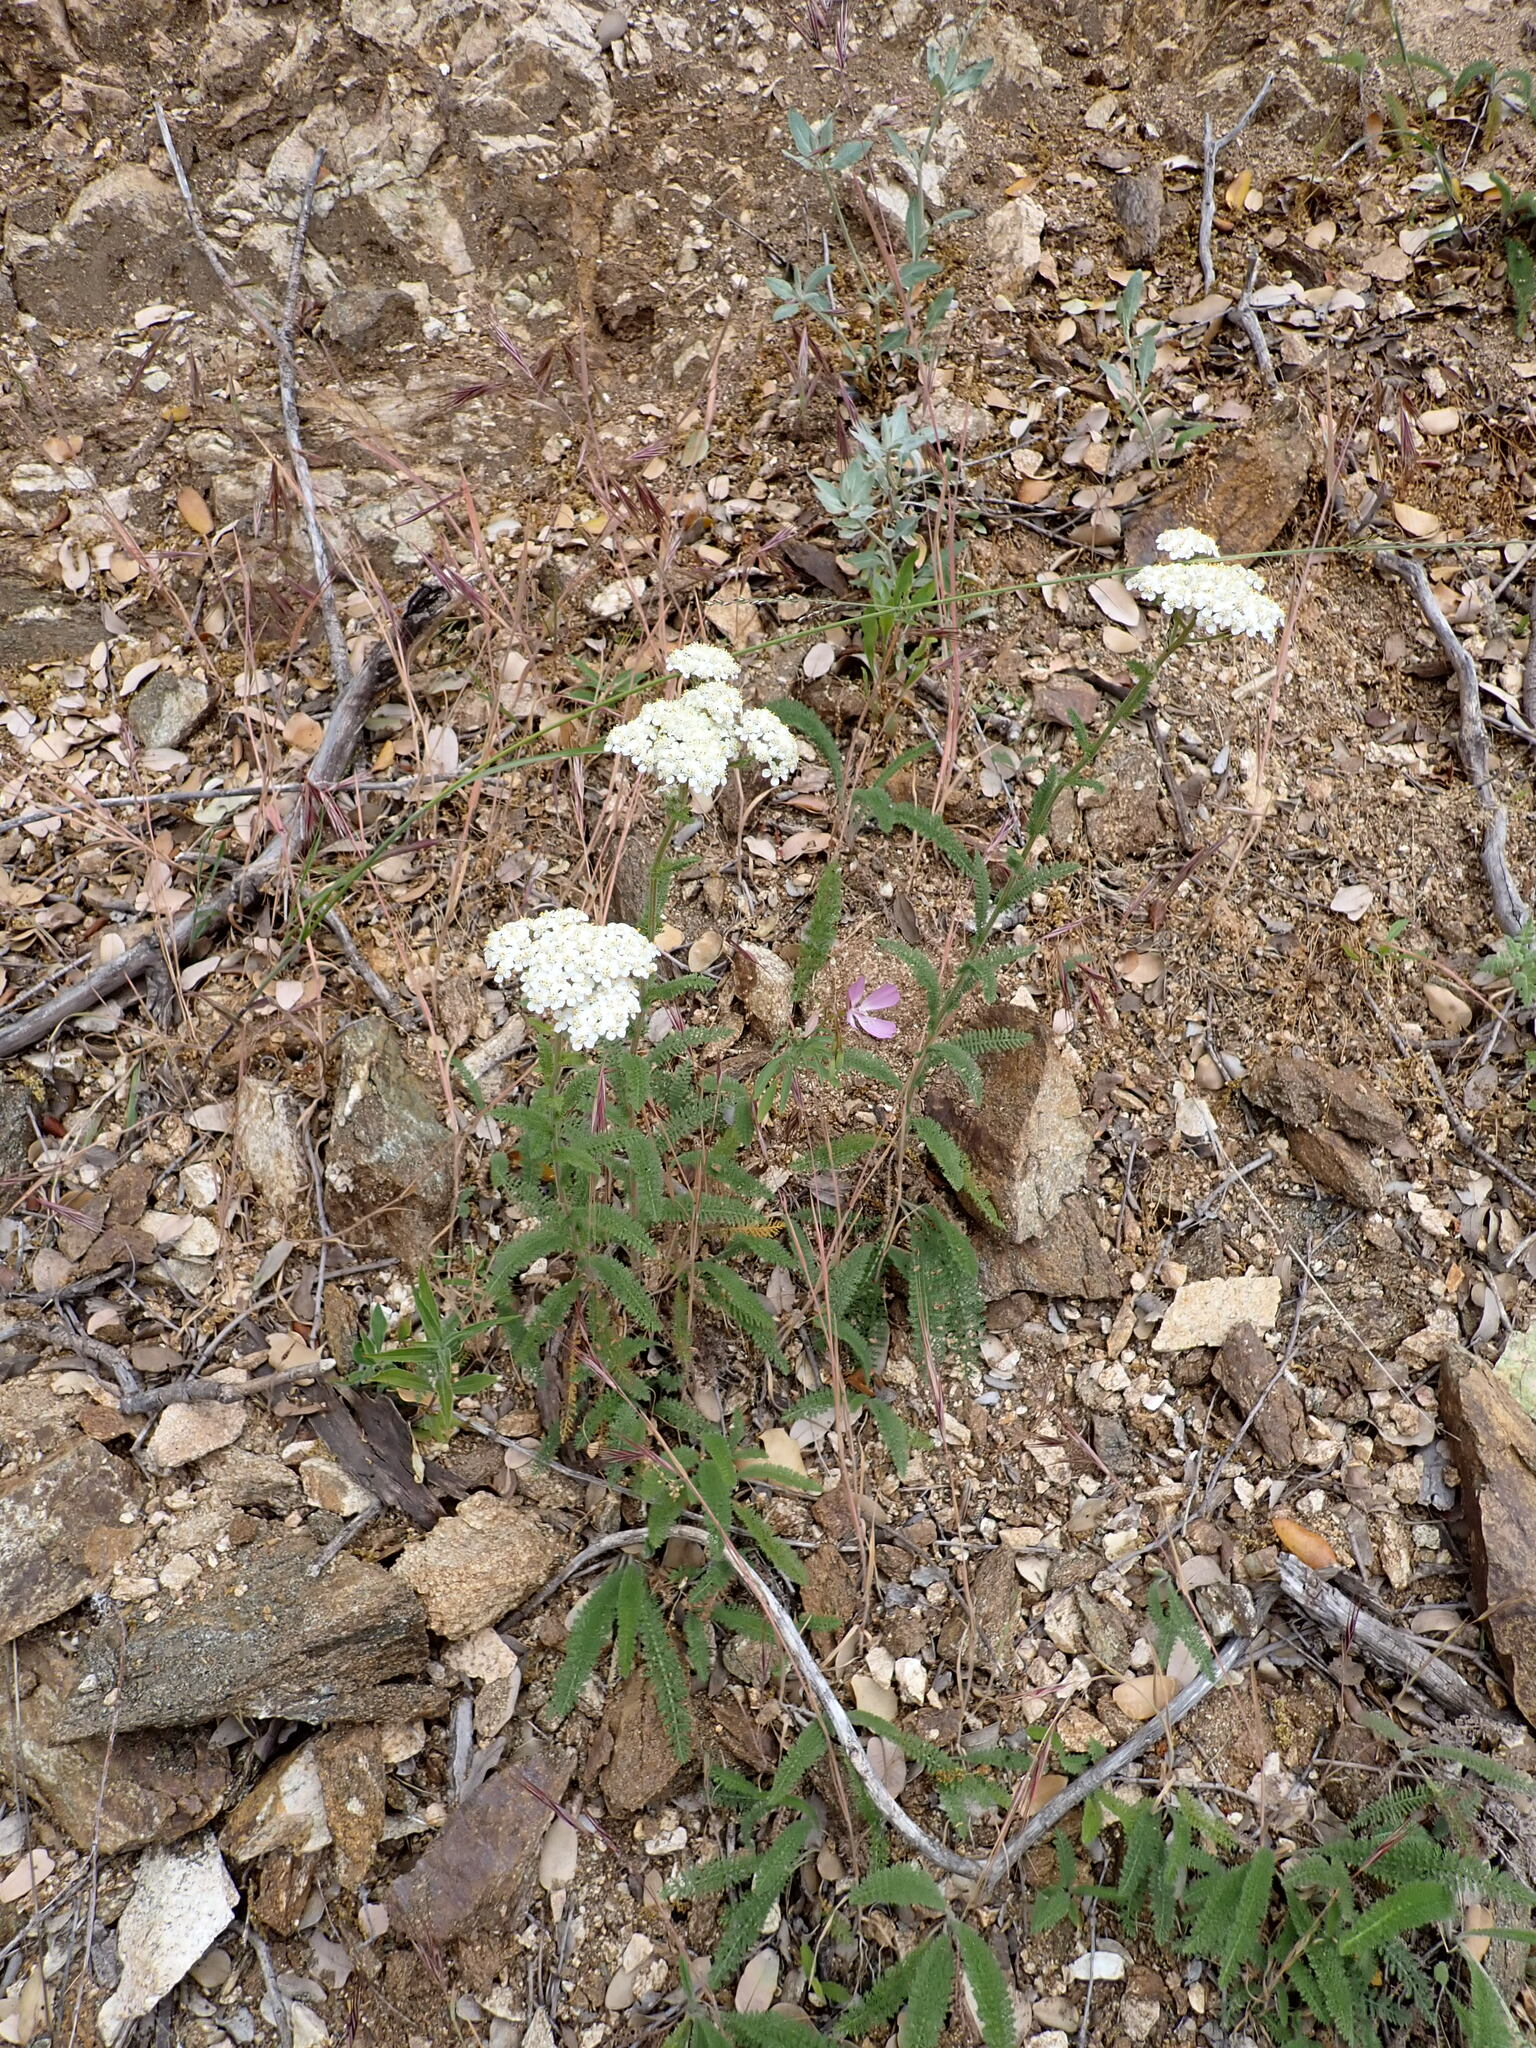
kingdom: Plantae
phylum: Tracheophyta
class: Magnoliopsida
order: Asterales
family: Asteraceae
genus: Achillea
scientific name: Achillea millefolium
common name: Yarrow
